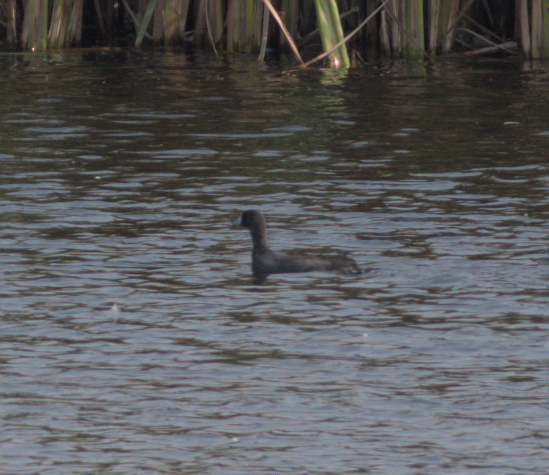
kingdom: Animalia
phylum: Chordata
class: Aves
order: Gruiformes
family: Rallidae
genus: Fulica
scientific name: Fulica americana
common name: American coot
